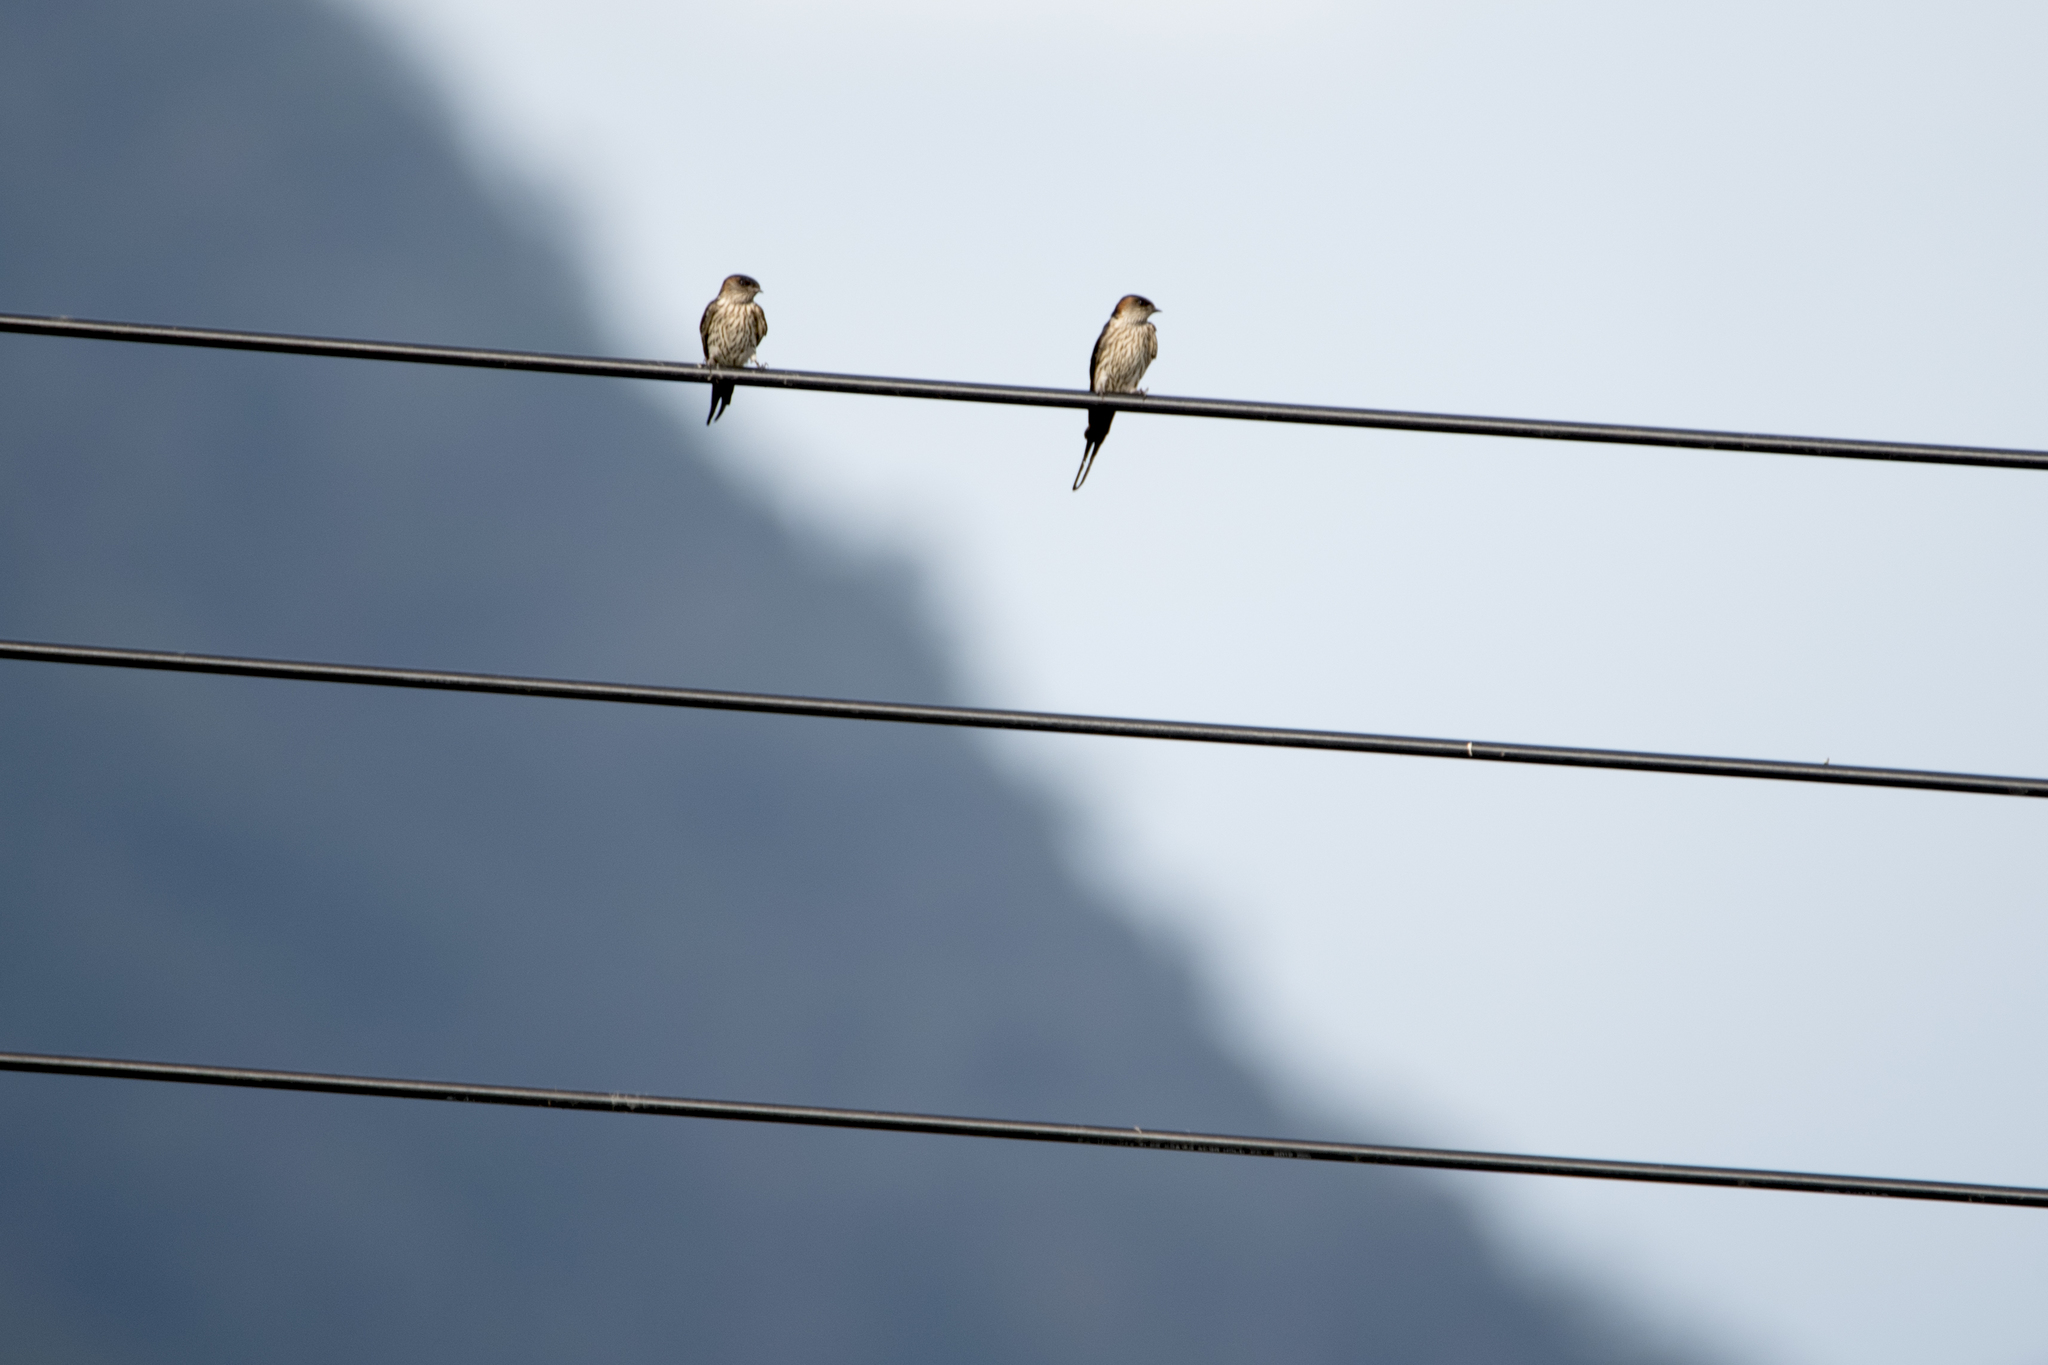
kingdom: Animalia
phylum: Chordata
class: Aves
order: Passeriformes
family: Hirundinidae
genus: Cecropis
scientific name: Cecropis striolata
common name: Striated swallow
